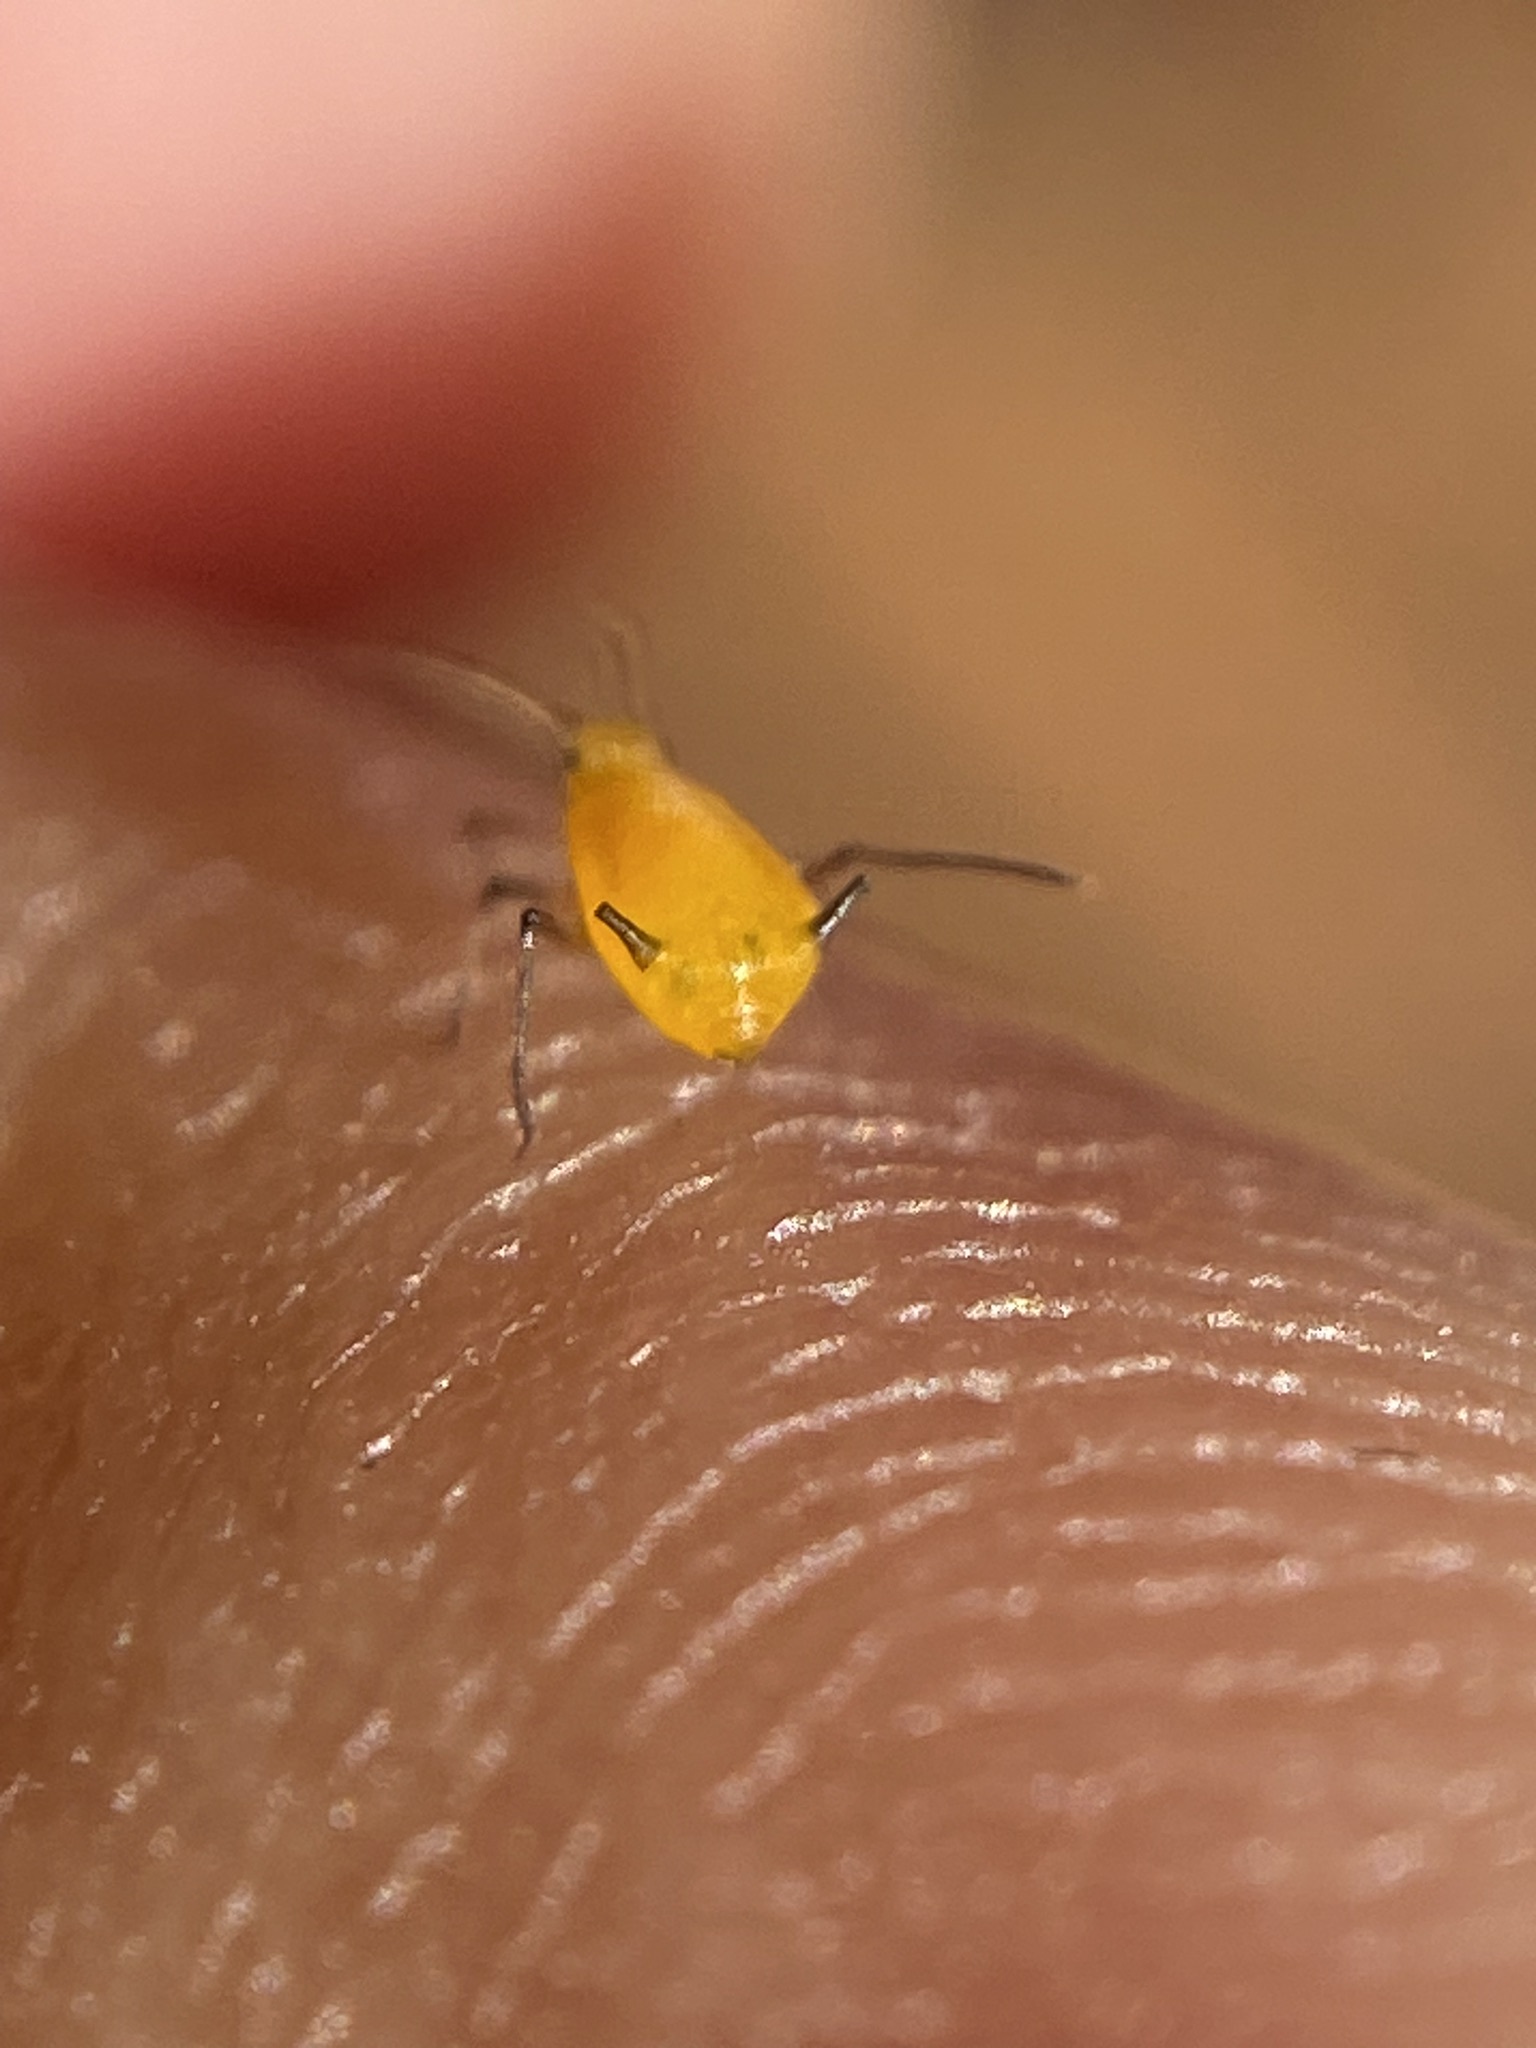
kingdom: Animalia
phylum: Arthropoda
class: Insecta
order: Hemiptera
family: Aphididae
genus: Aphis
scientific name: Aphis nerii
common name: Oleander aphid
